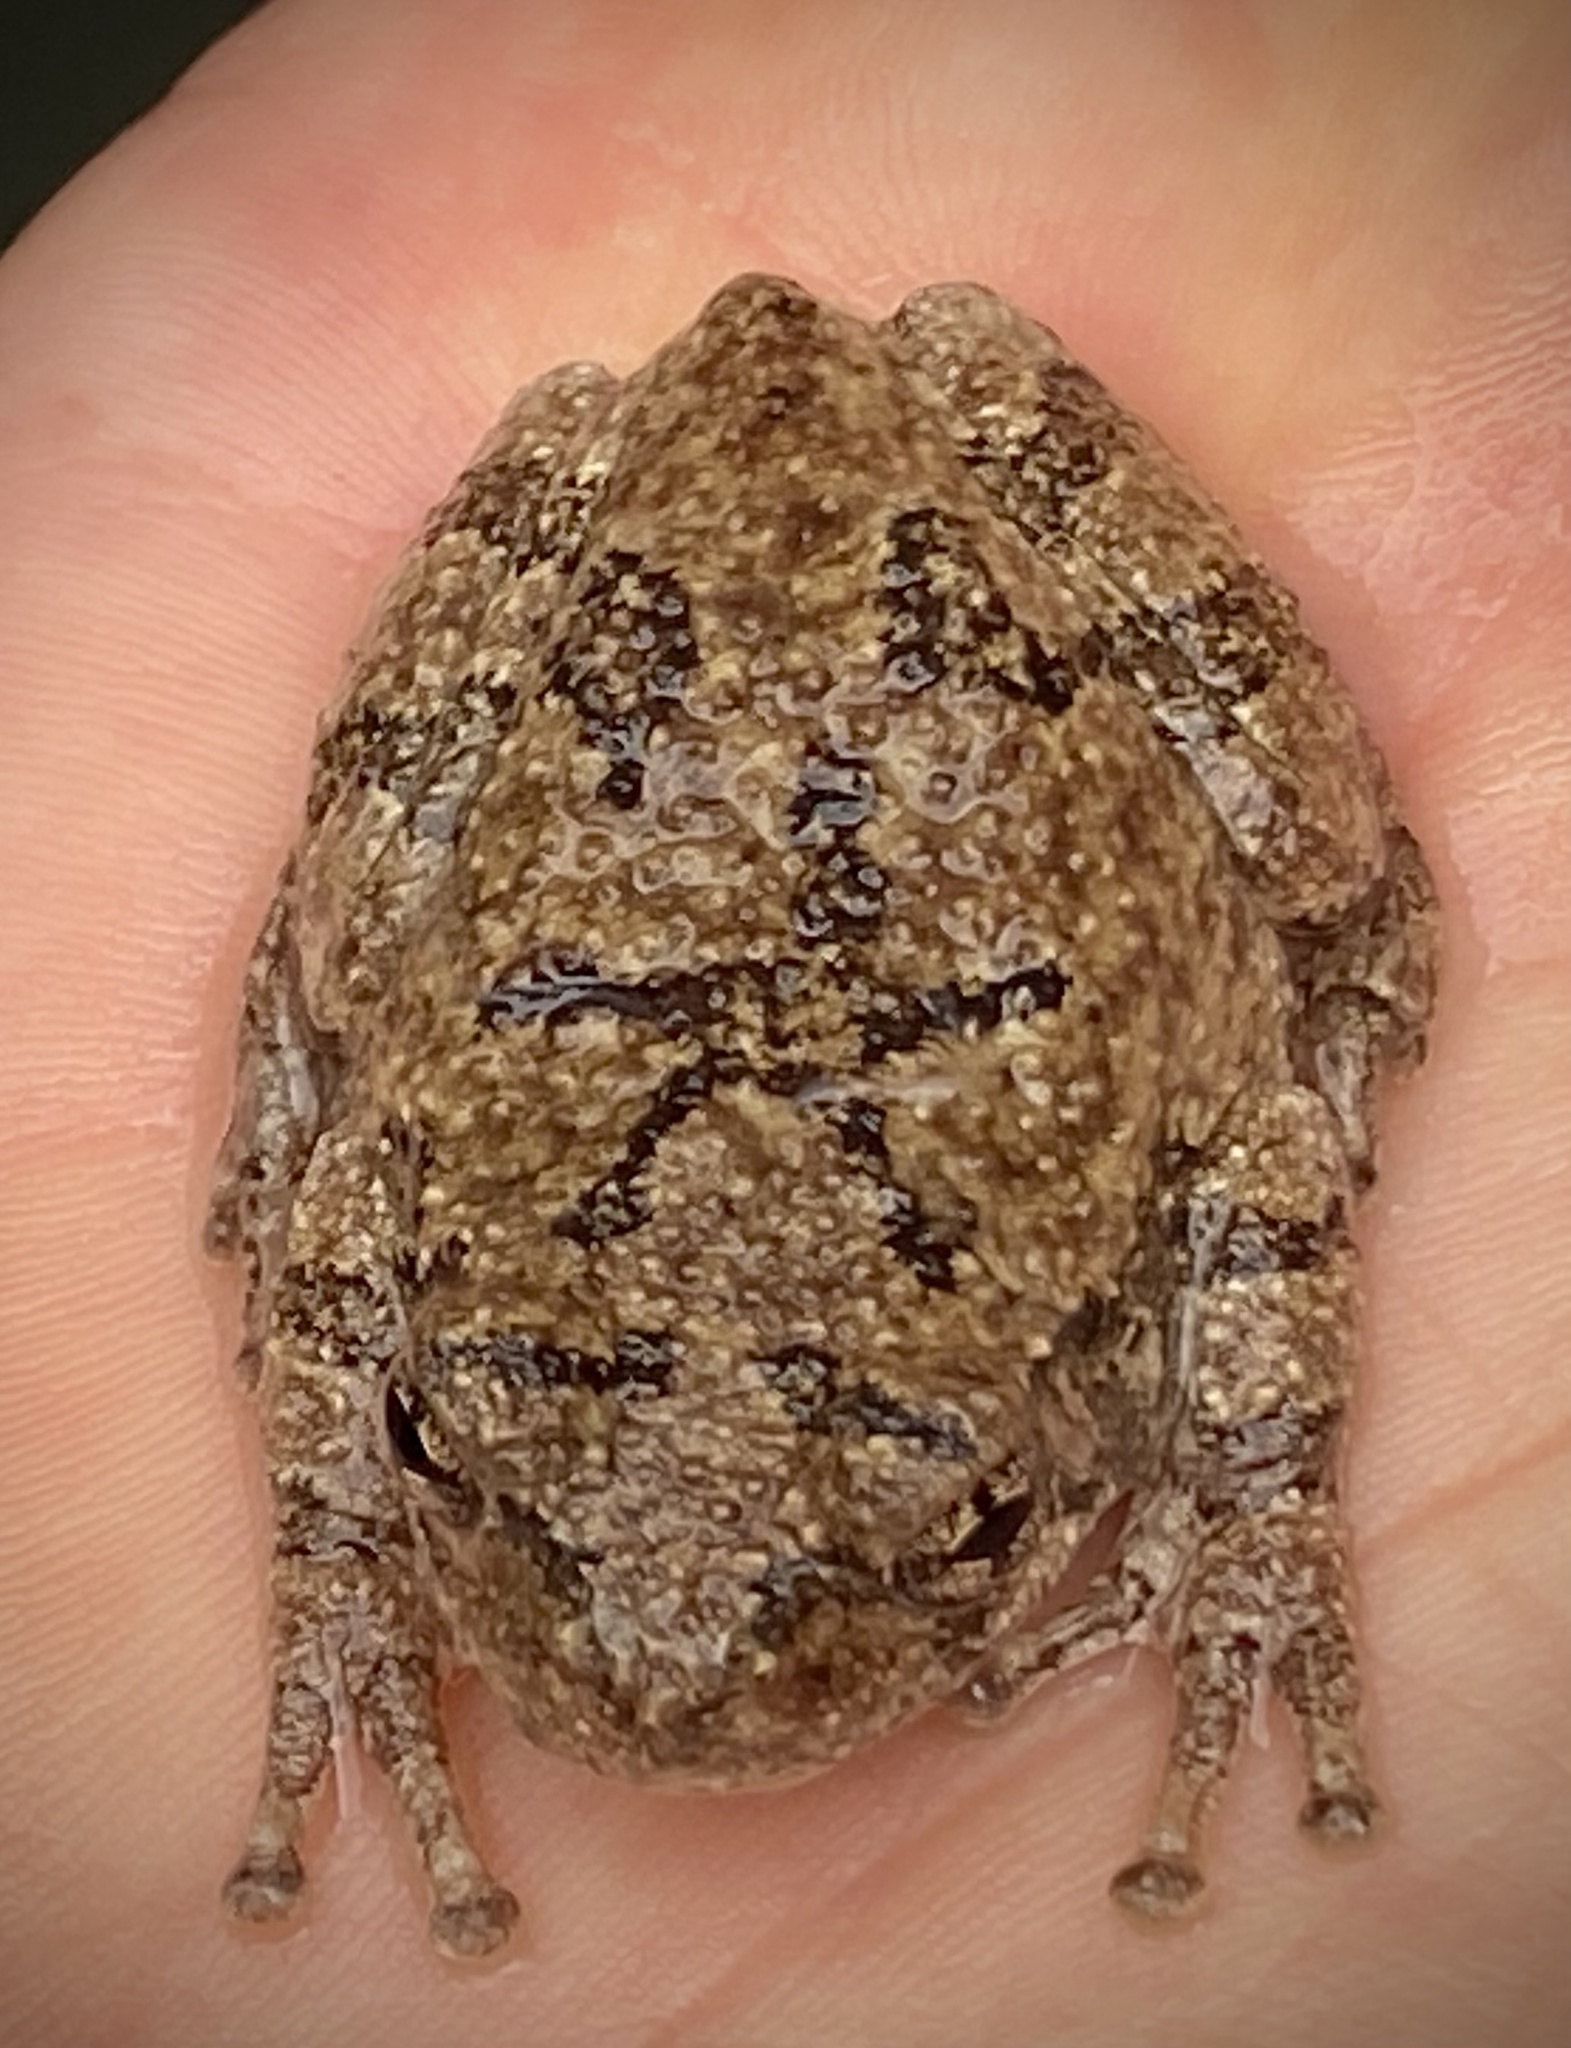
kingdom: Animalia
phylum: Chordata
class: Amphibia
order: Anura
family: Hylidae
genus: Dryophytes
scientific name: Dryophytes chrysoscelis
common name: Cope's gray treefrog
